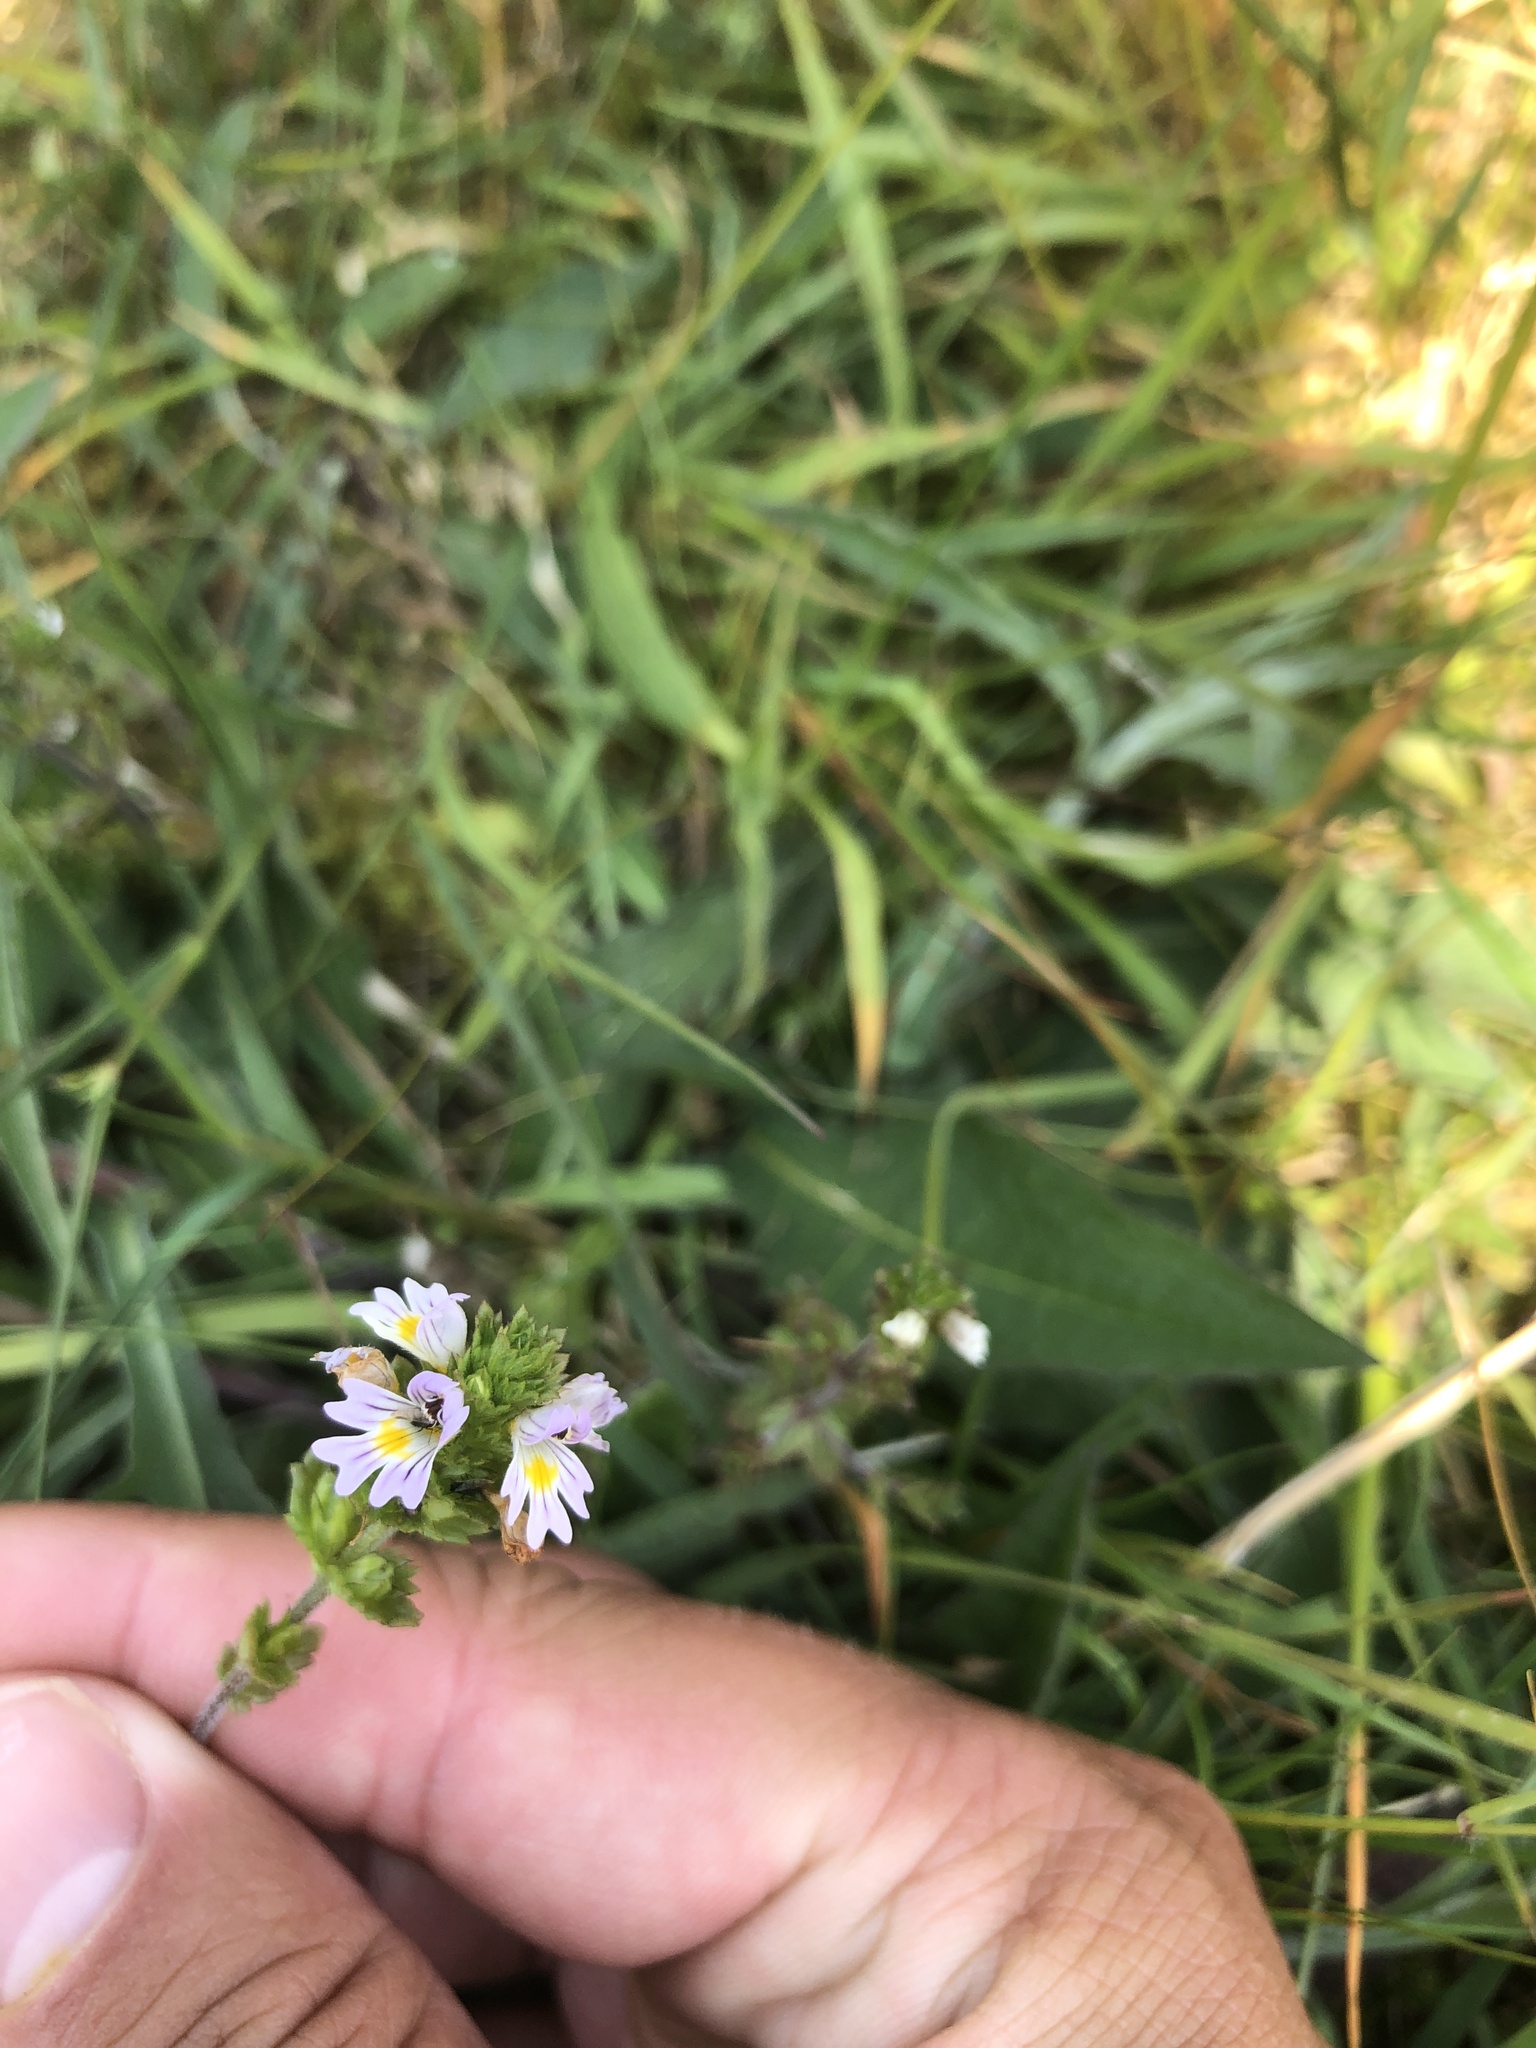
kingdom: Plantae
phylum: Tracheophyta
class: Magnoliopsida
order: Lamiales
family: Orobanchaceae
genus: Euphrasia
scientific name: Euphrasia nemorosa
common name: Common eyebright
